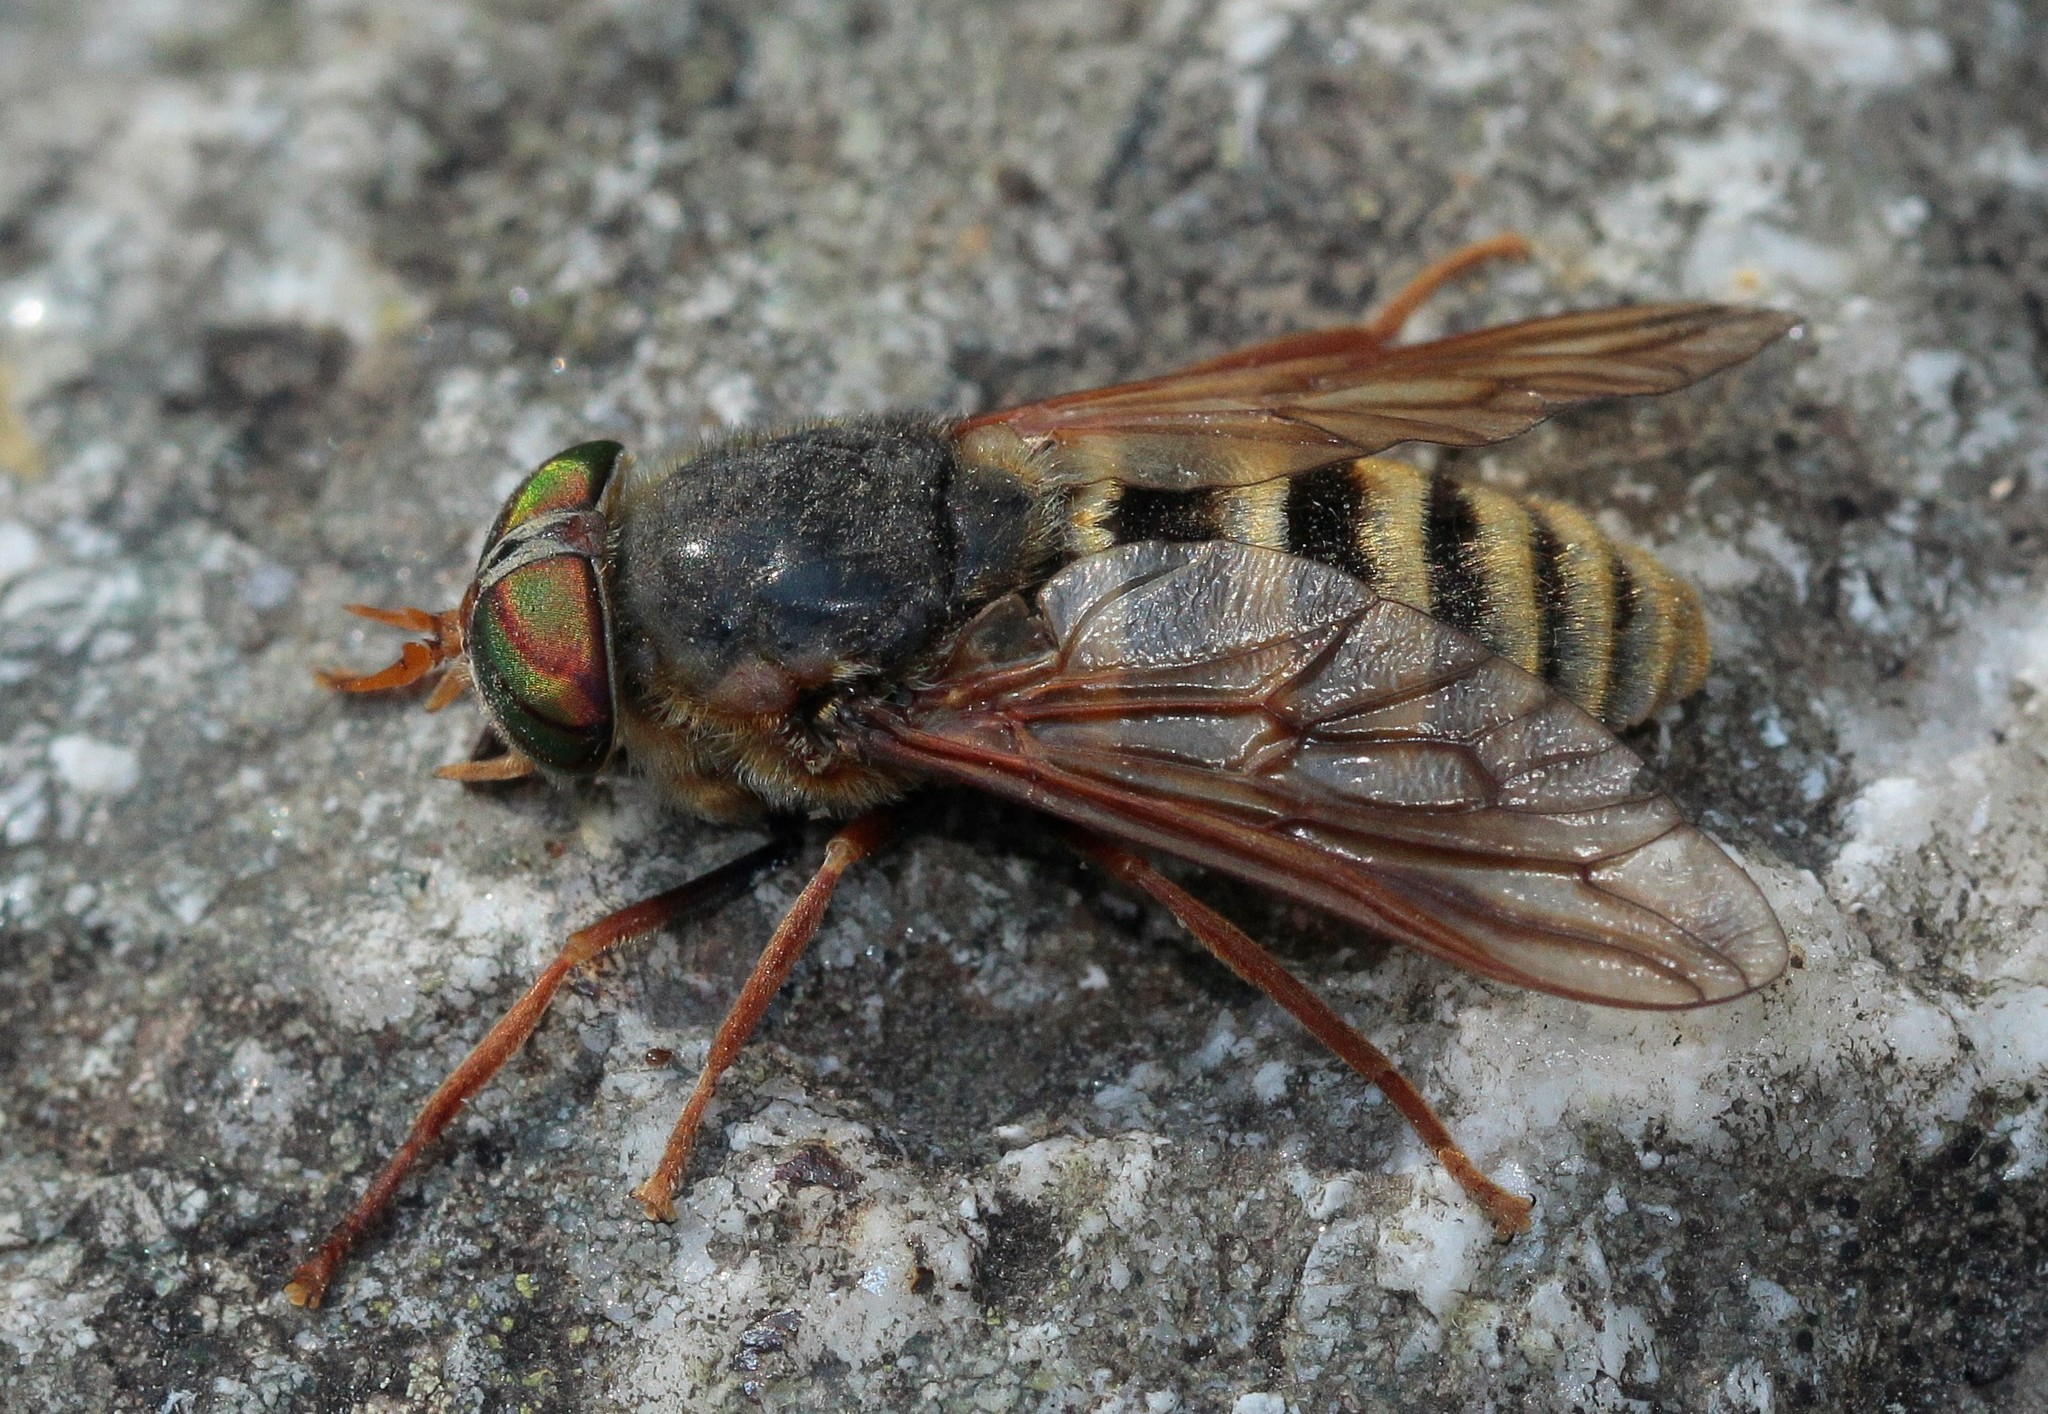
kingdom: Animalia
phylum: Arthropoda
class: Insecta
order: Diptera
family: Tabanidae
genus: Hybomitra
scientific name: Hybomitra tarandina
